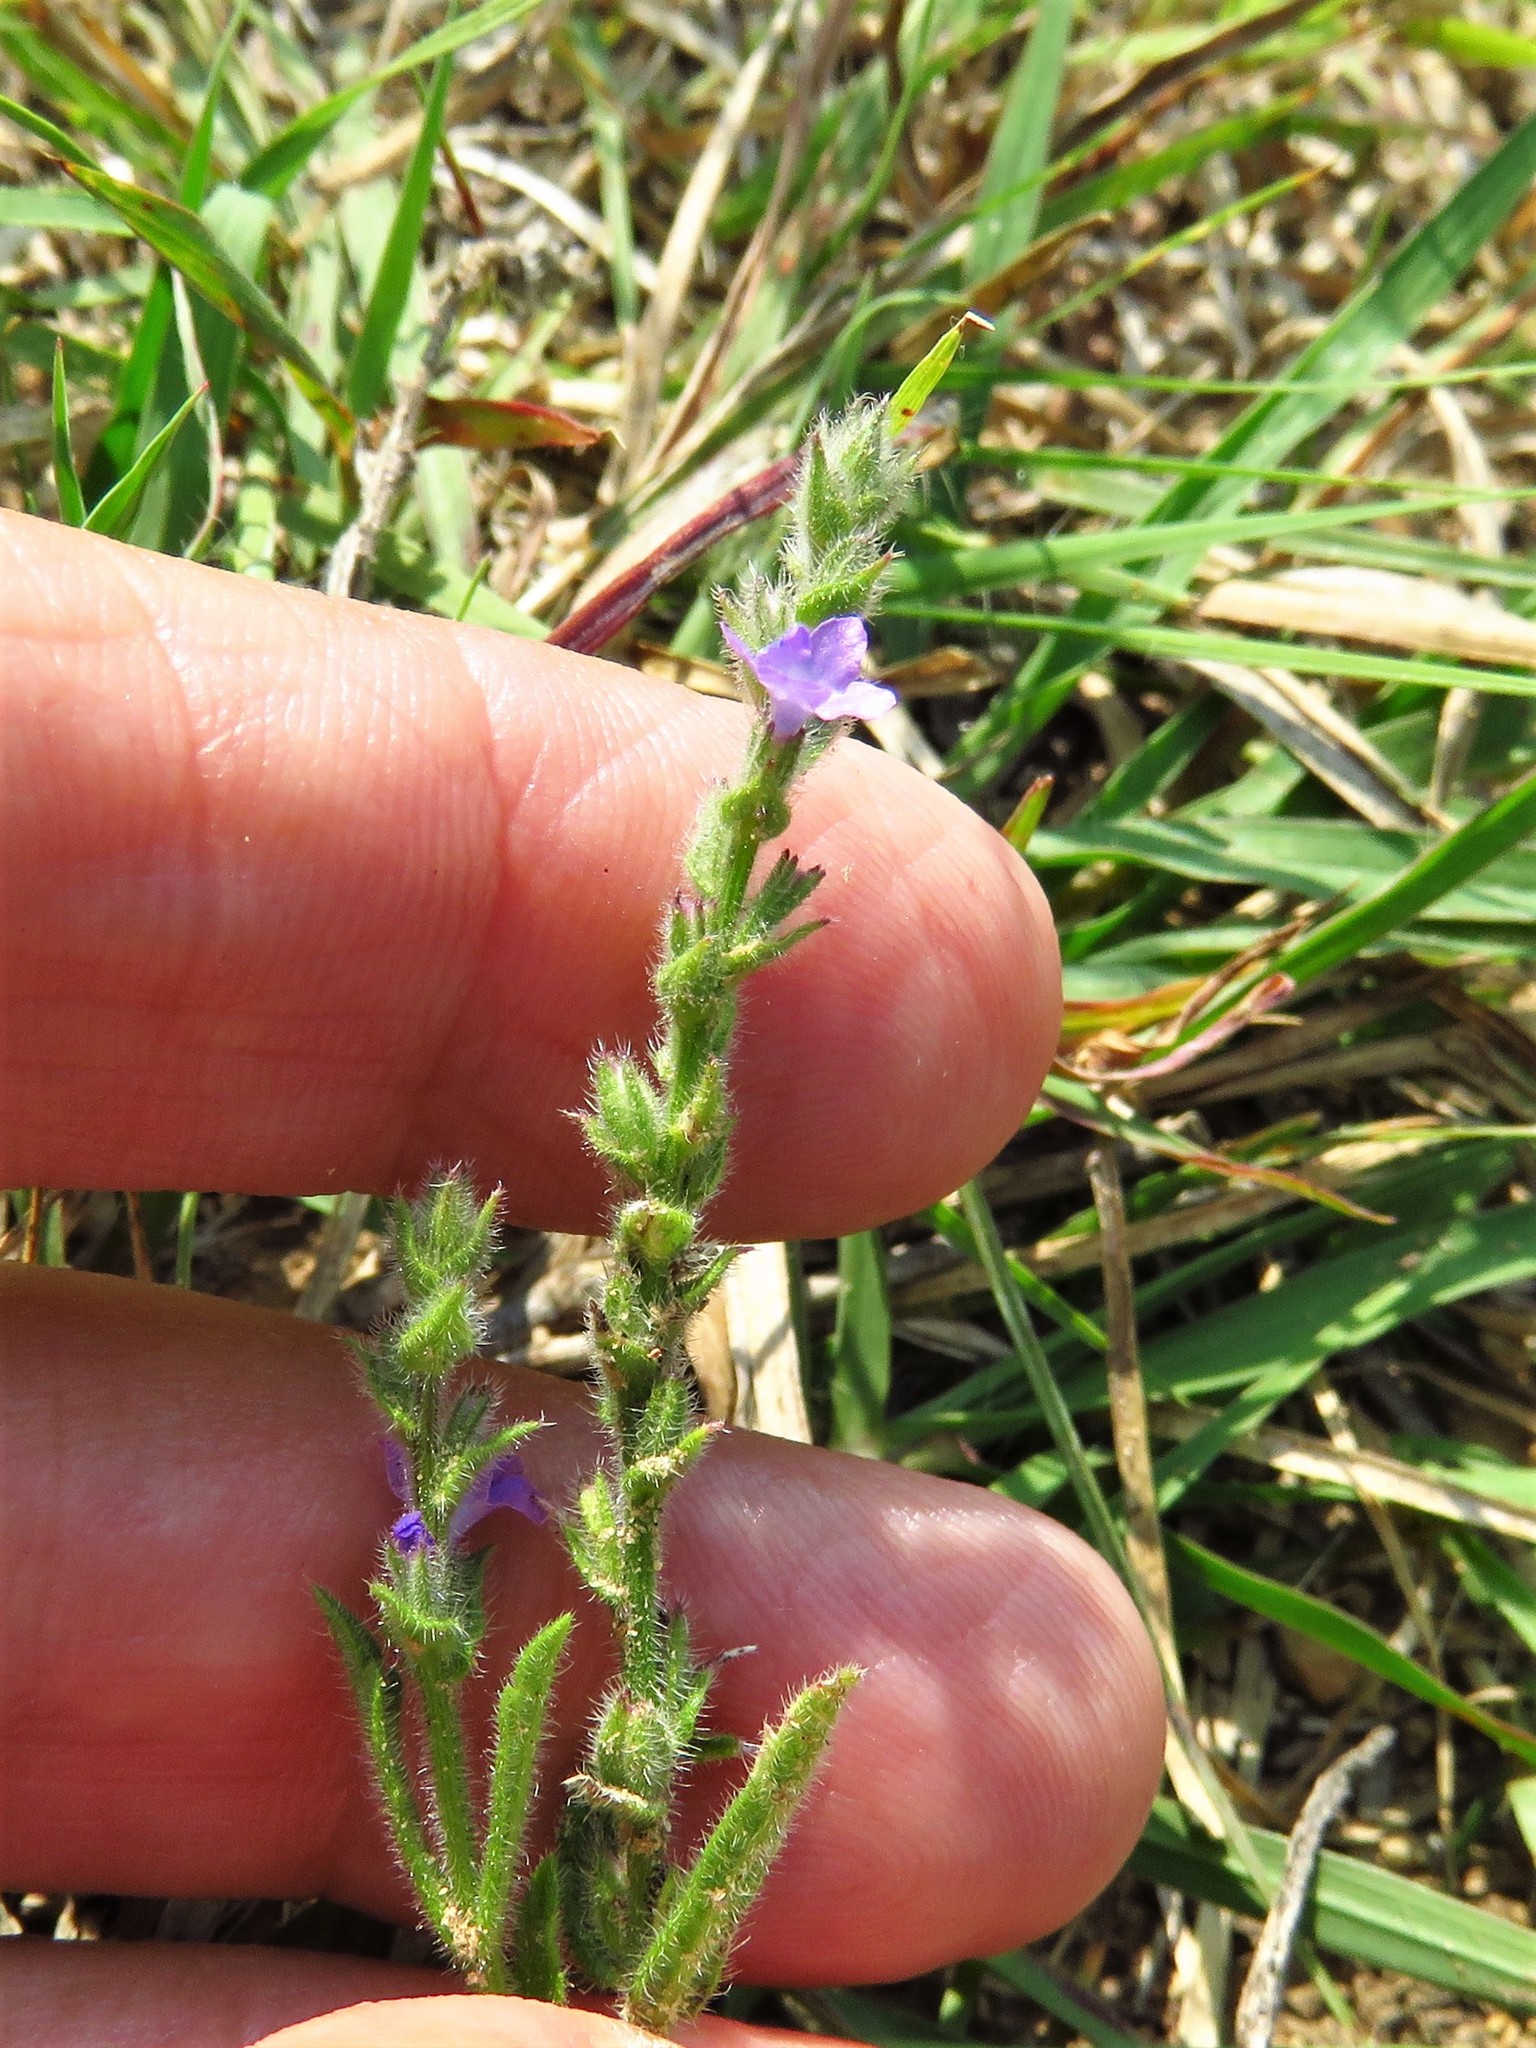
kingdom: Plantae
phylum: Tracheophyta
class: Magnoliopsida
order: Lamiales
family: Verbenaceae
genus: Verbena
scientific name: Verbena canescens
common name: Gray vervain
